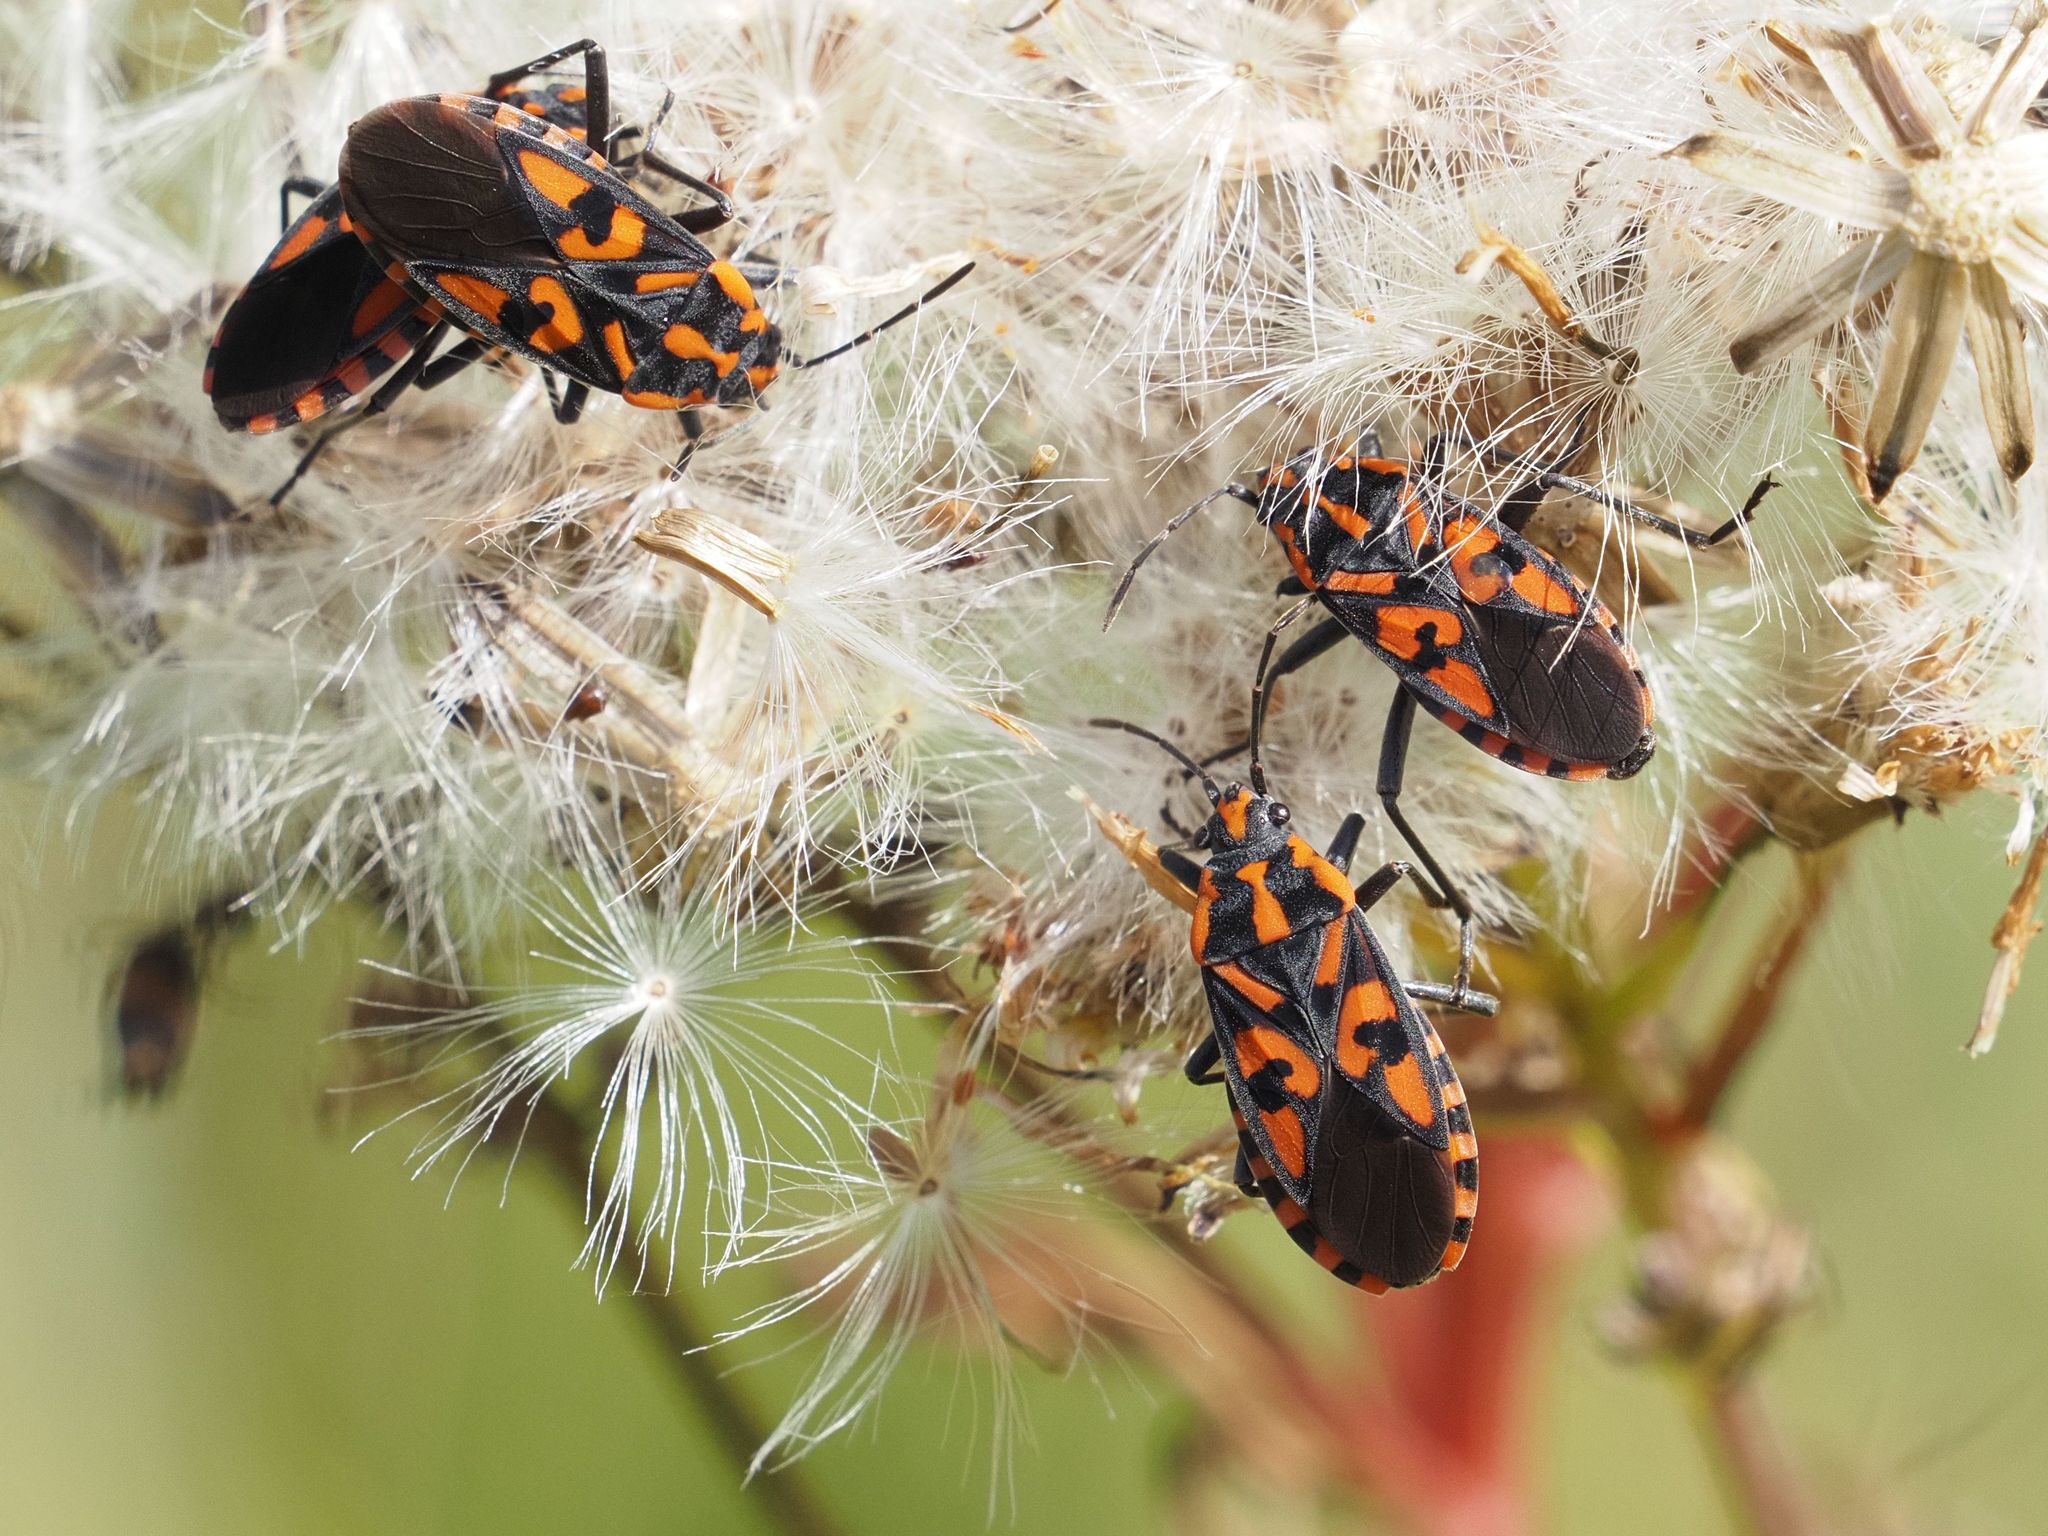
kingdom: Animalia
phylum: Arthropoda
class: Insecta
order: Hemiptera
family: Lygaeidae
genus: Spilostethus
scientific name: Spilostethus saxatilis
